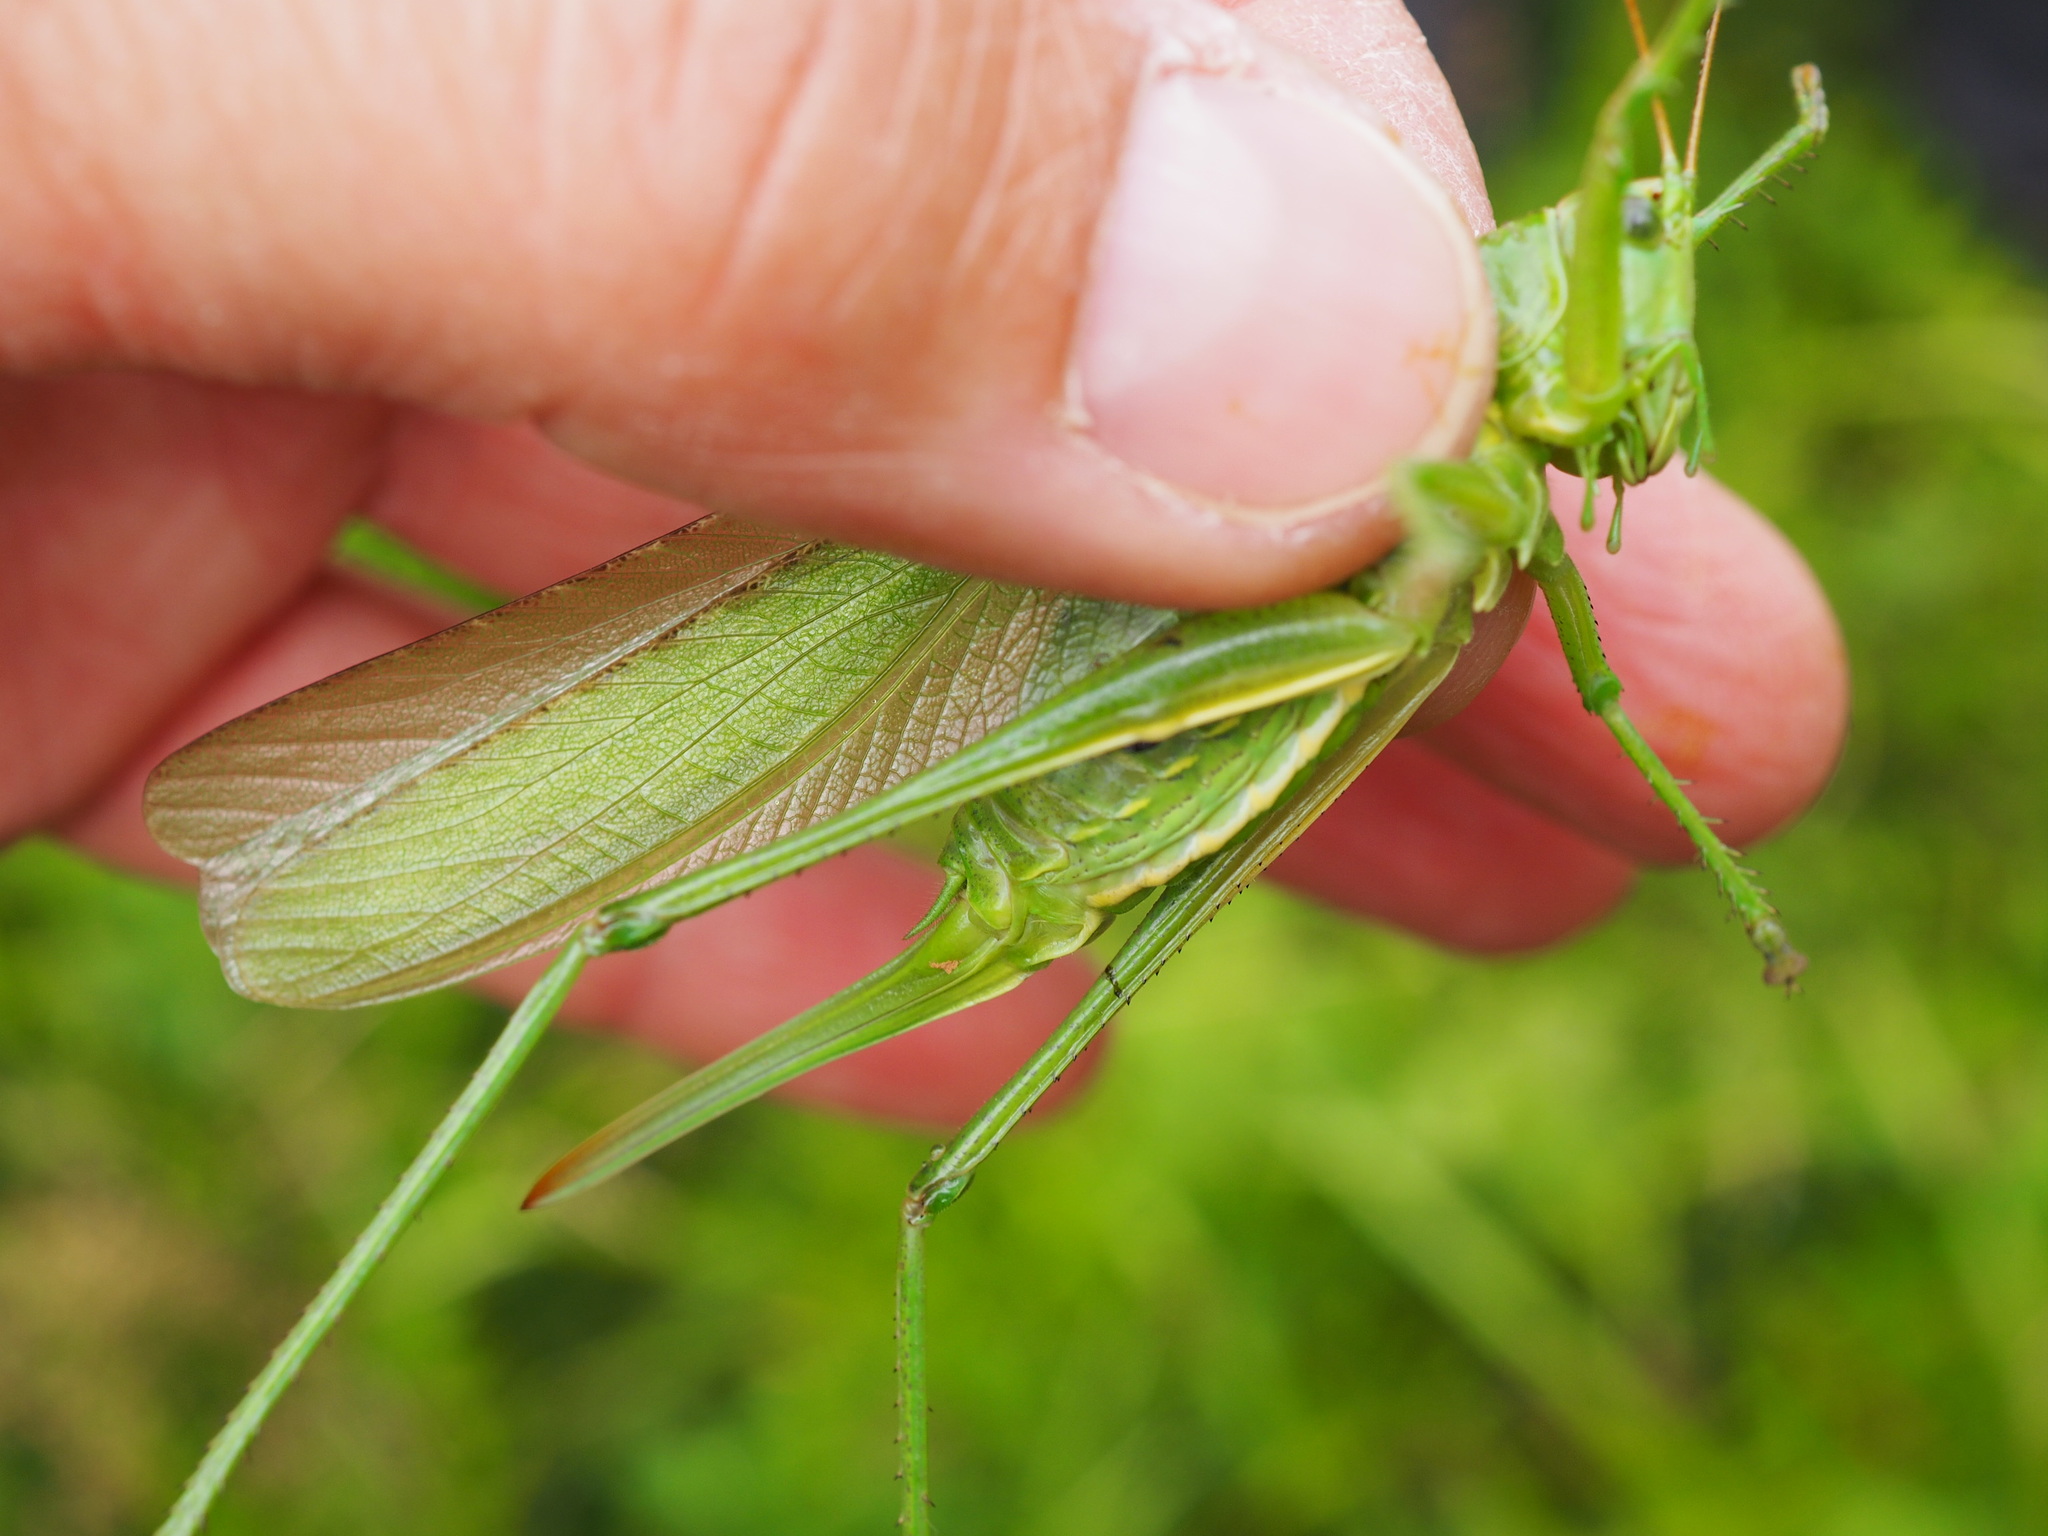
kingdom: Animalia
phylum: Arthropoda
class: Insecta
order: Orthoptera
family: Tettigoniidae
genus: Tettigonia
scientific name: Tettigonia viridissima
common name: Great green bush-cricket
